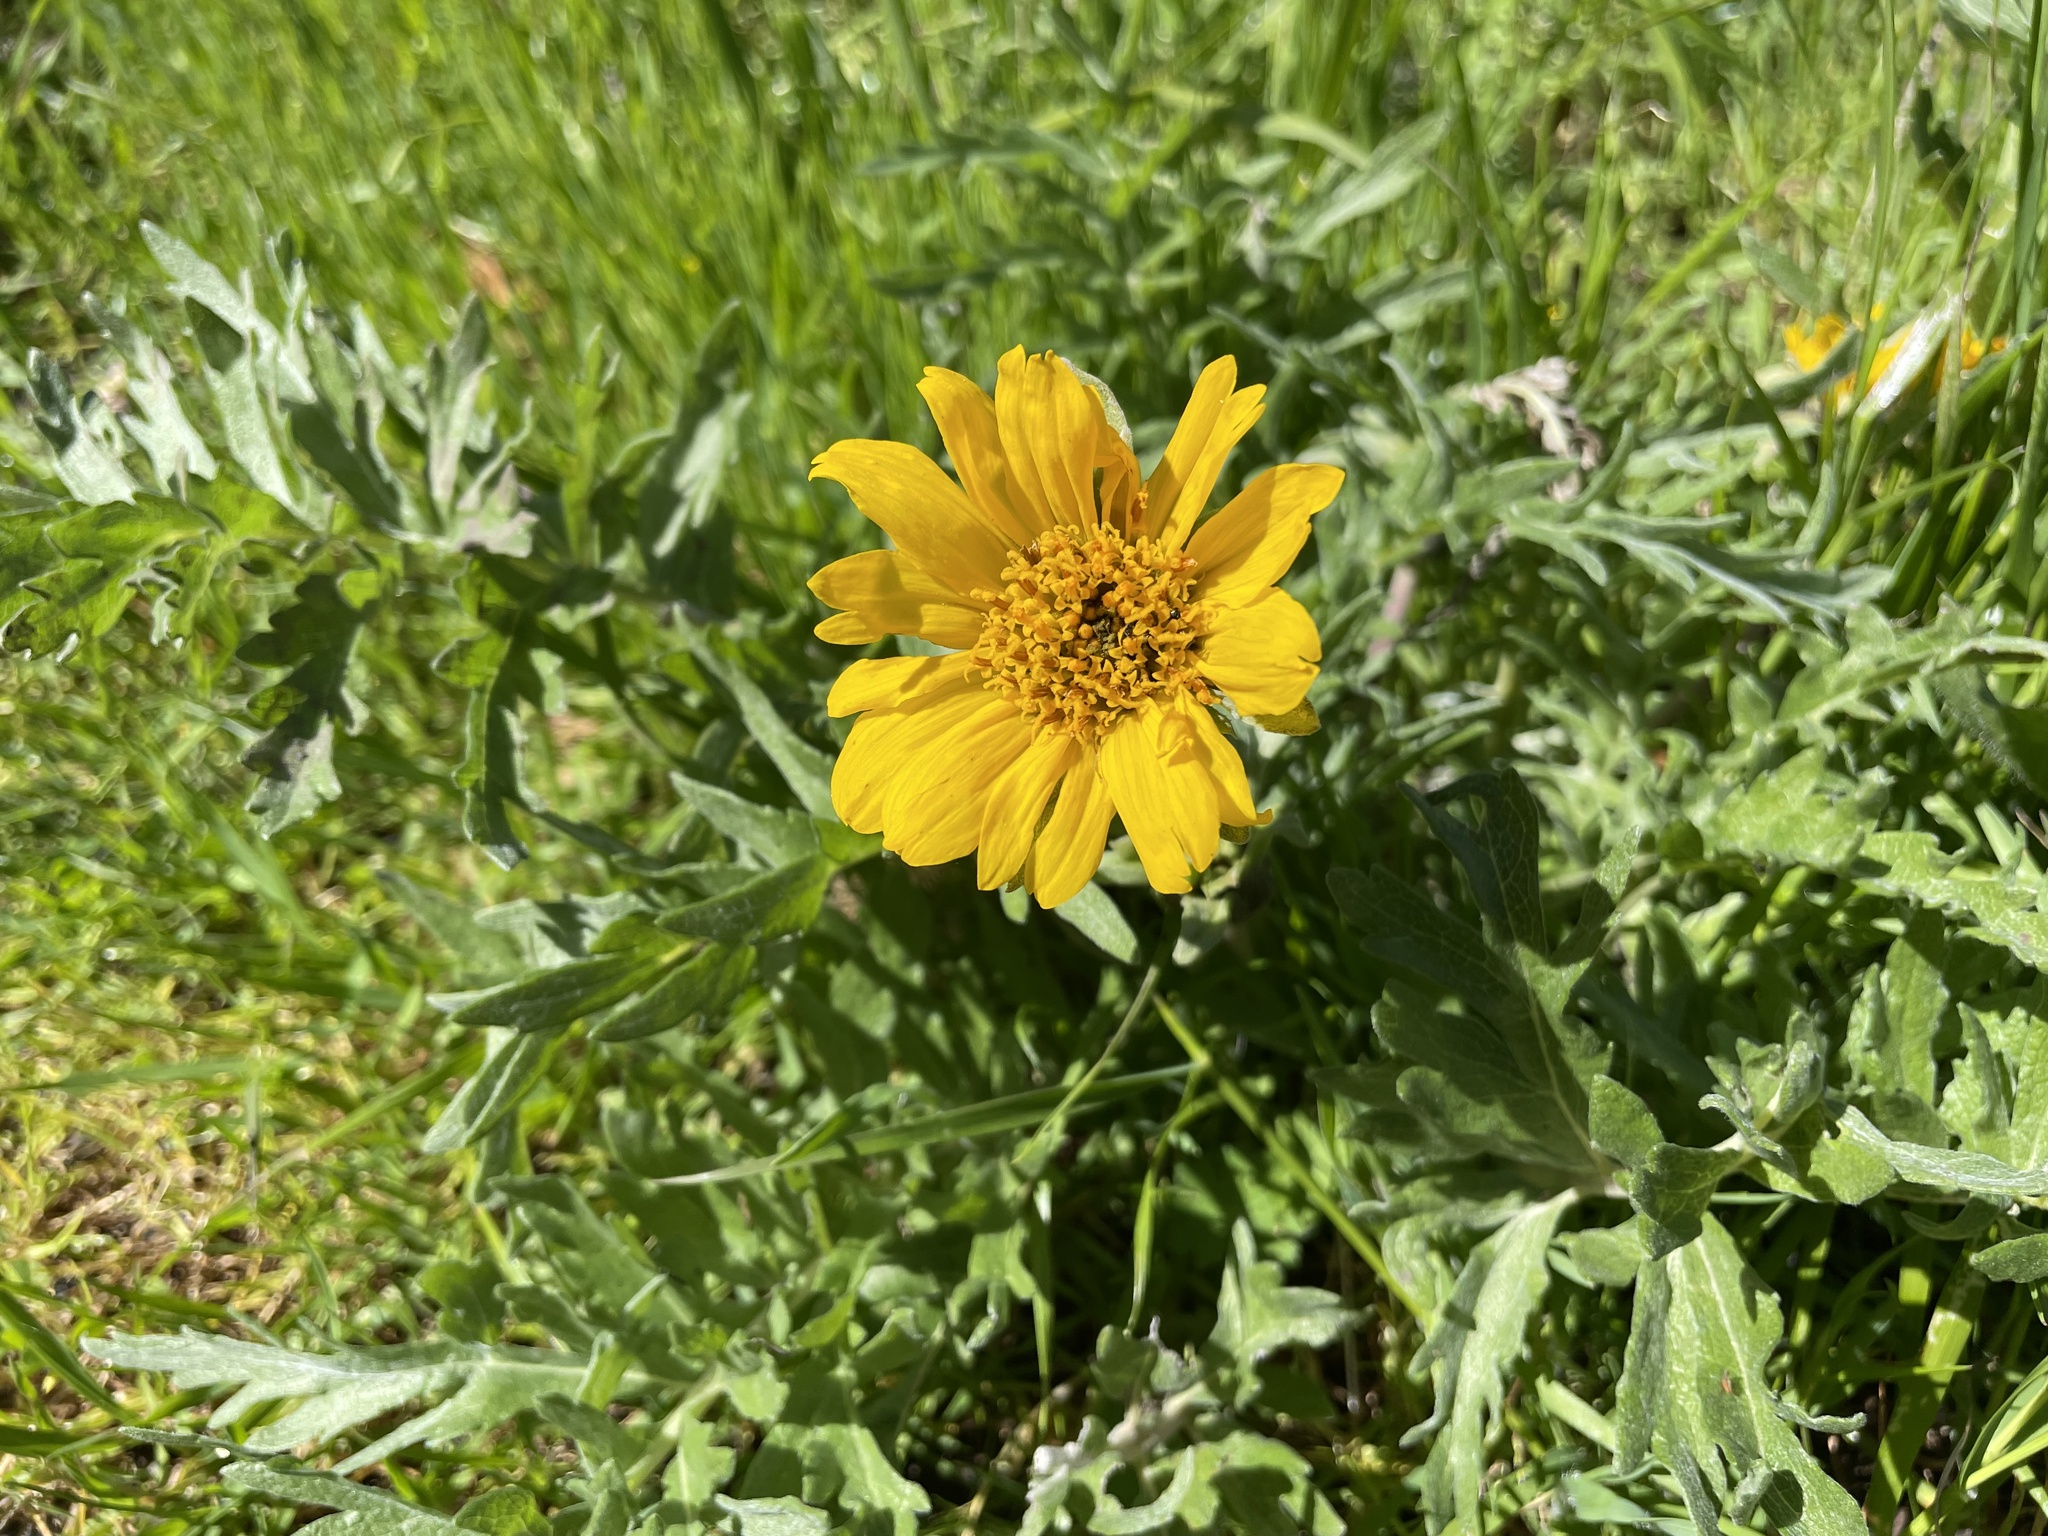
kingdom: Plantae
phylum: Tracheophyta
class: Magnoliopsida
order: Asterales
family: Asteraceae
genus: Balsamorhiza
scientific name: Balsamorhiza macrolepis
